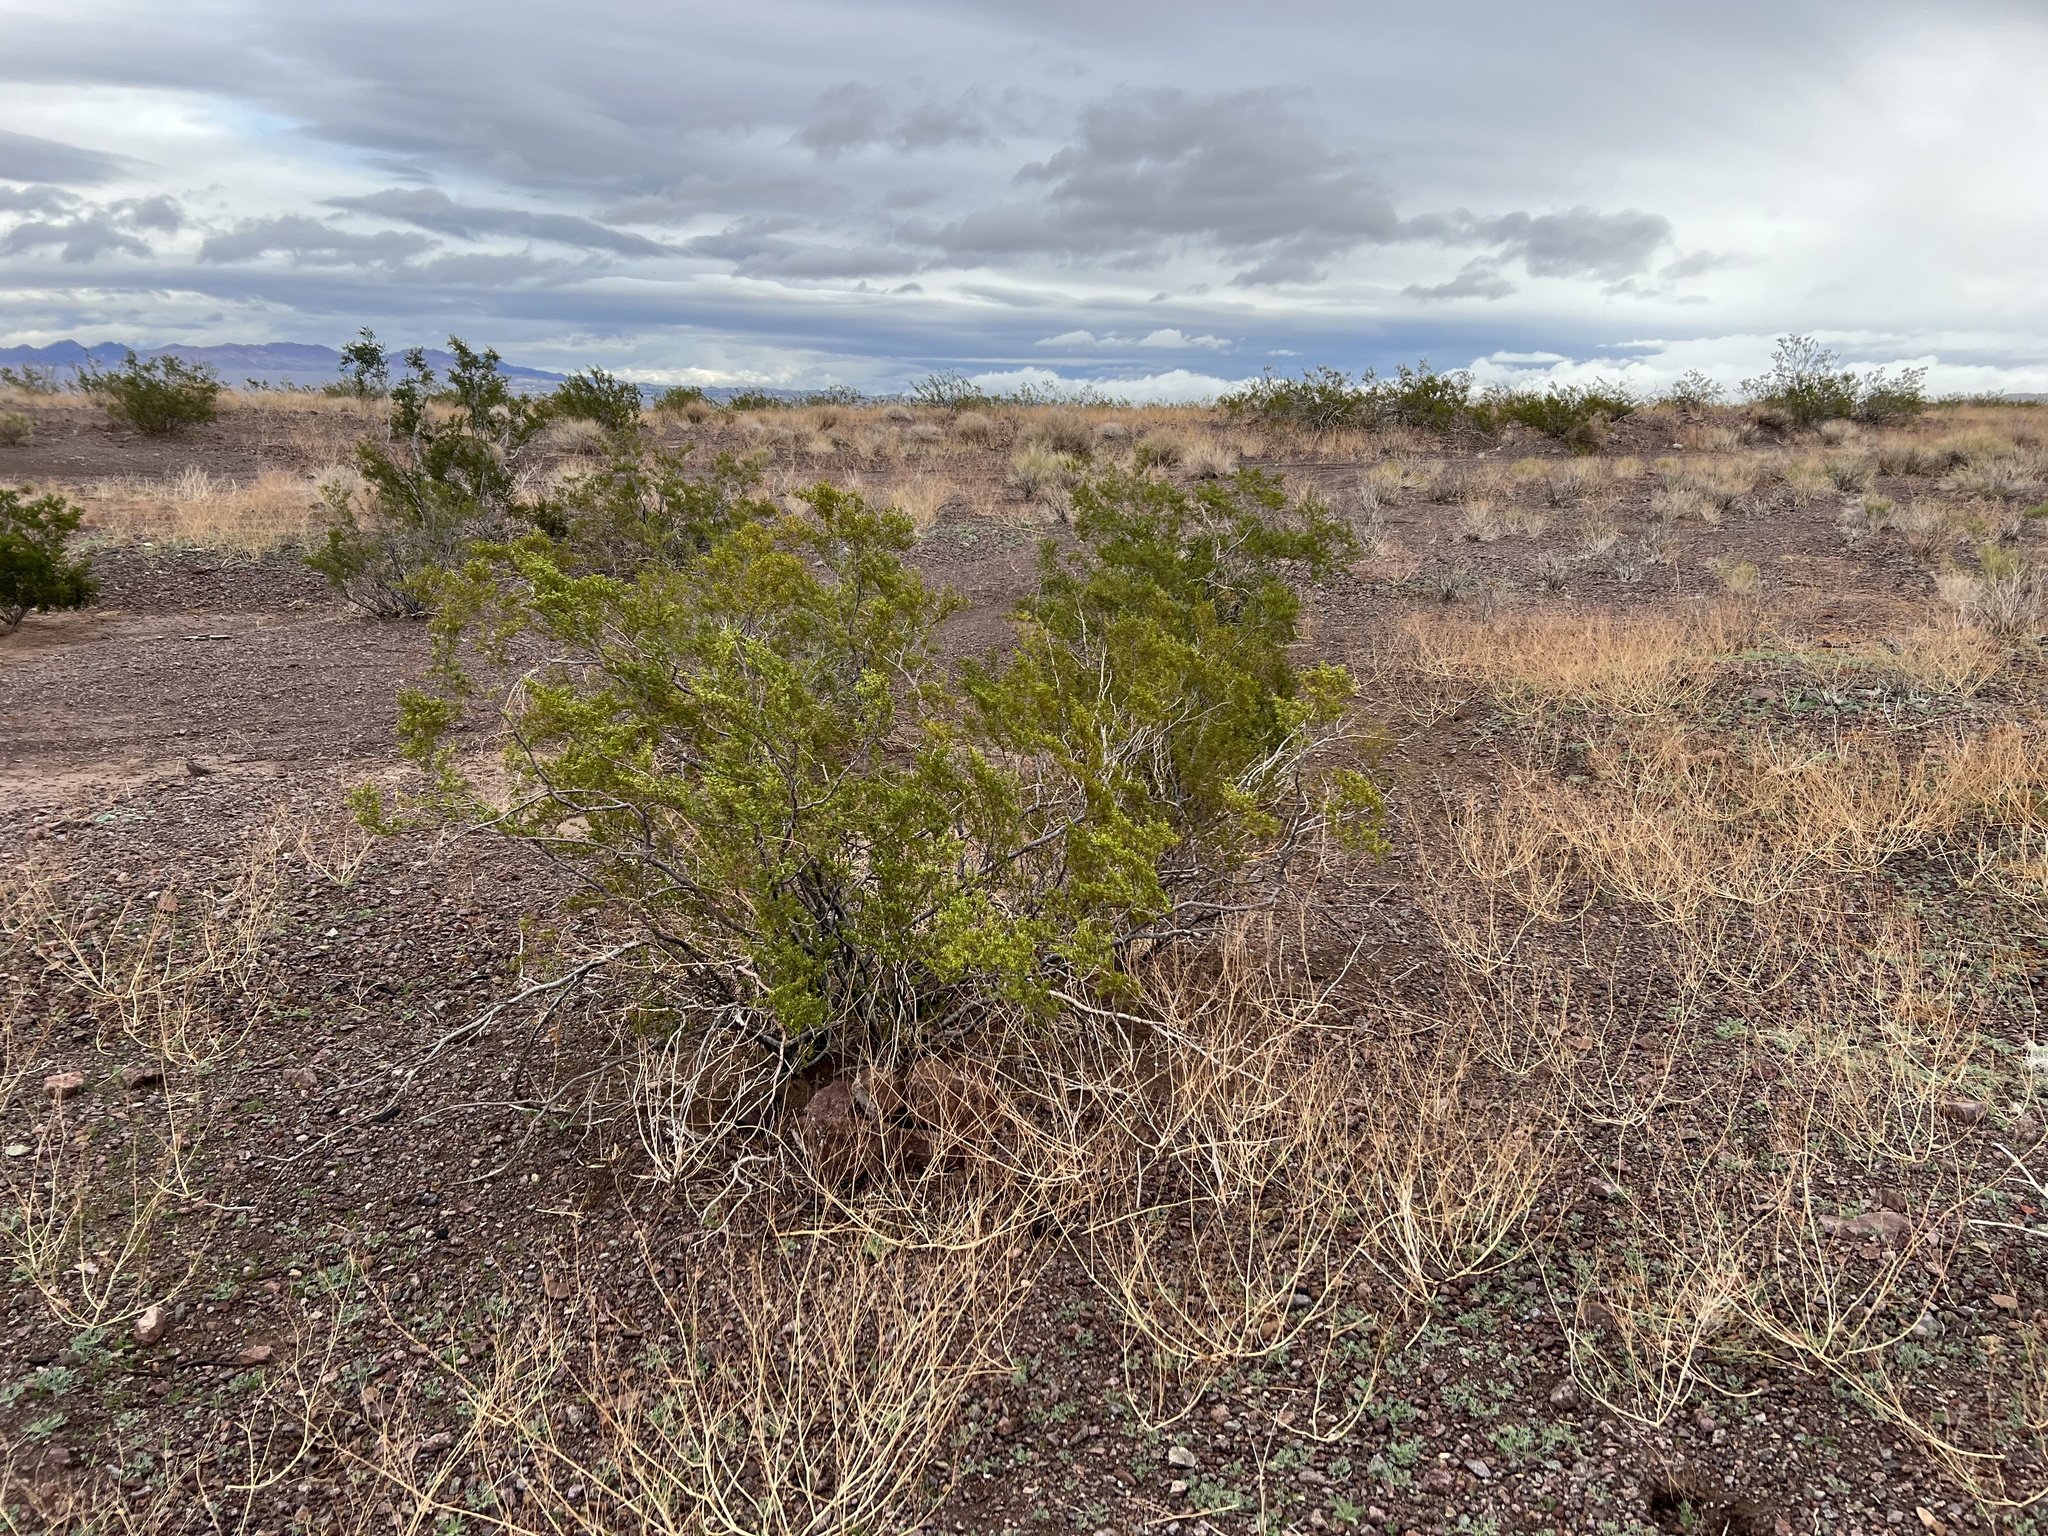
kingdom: Plantae
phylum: Tracheophyta
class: Magnoliopsida
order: Zygophyllales
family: Zygophyllaceae
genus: Larrea
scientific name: Larrea tridentata
